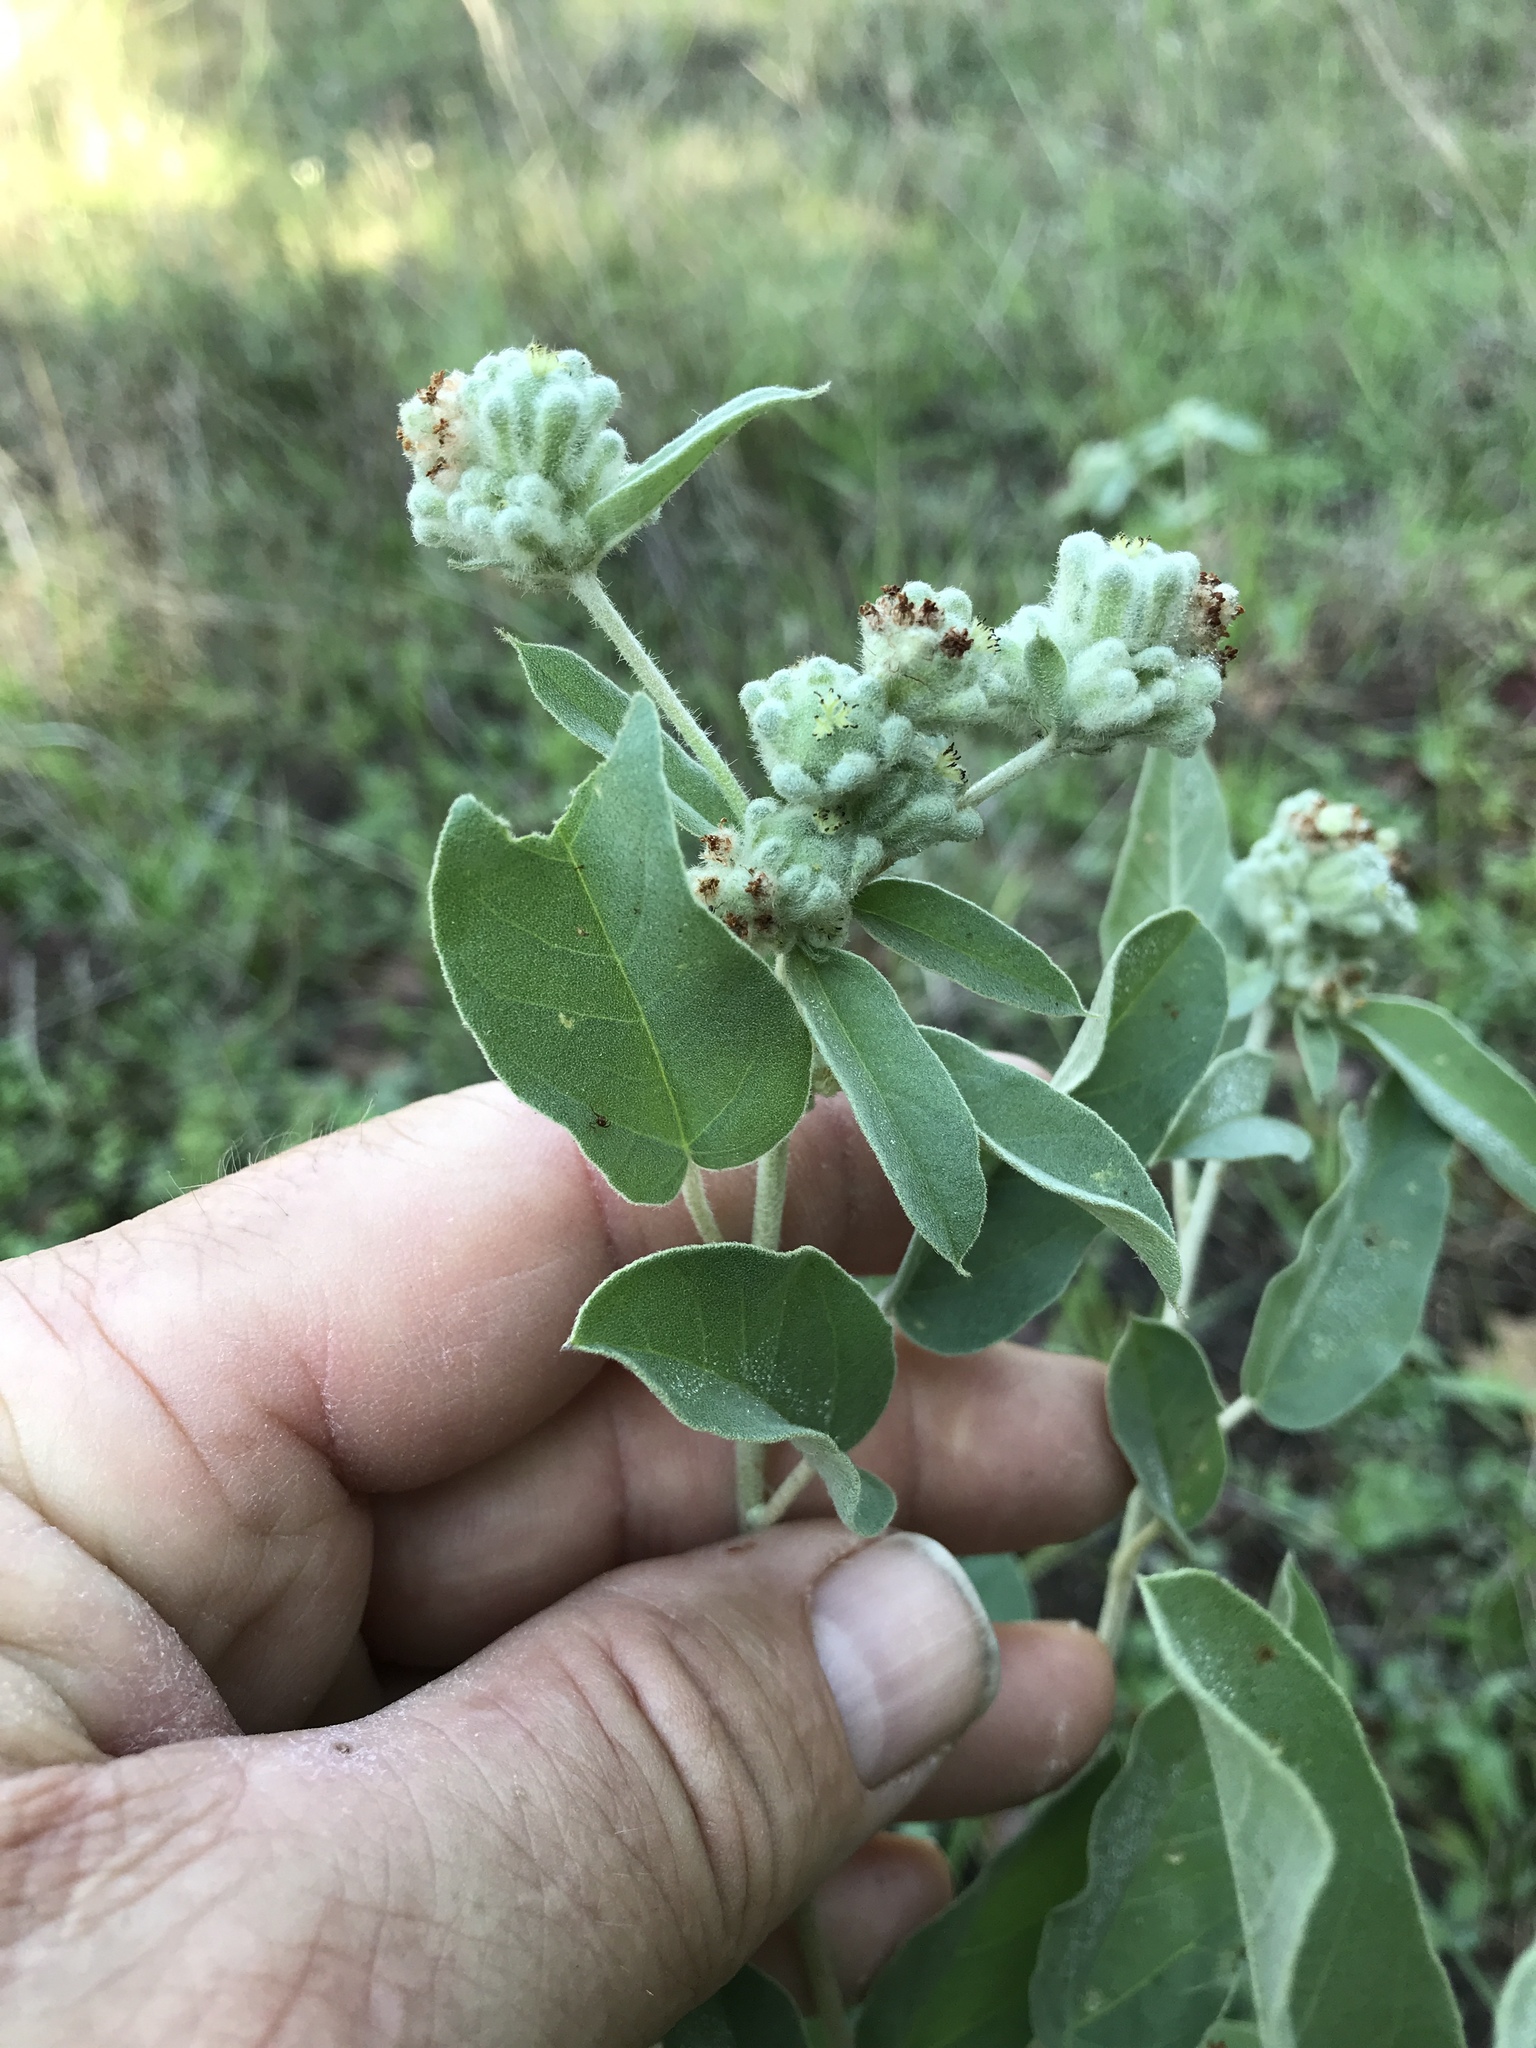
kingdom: Plantae
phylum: Tracheophyta
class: Magnoliopsida
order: Malpighiales
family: Euphorbiaceae
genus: Croton
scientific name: Croton lindheimeri
